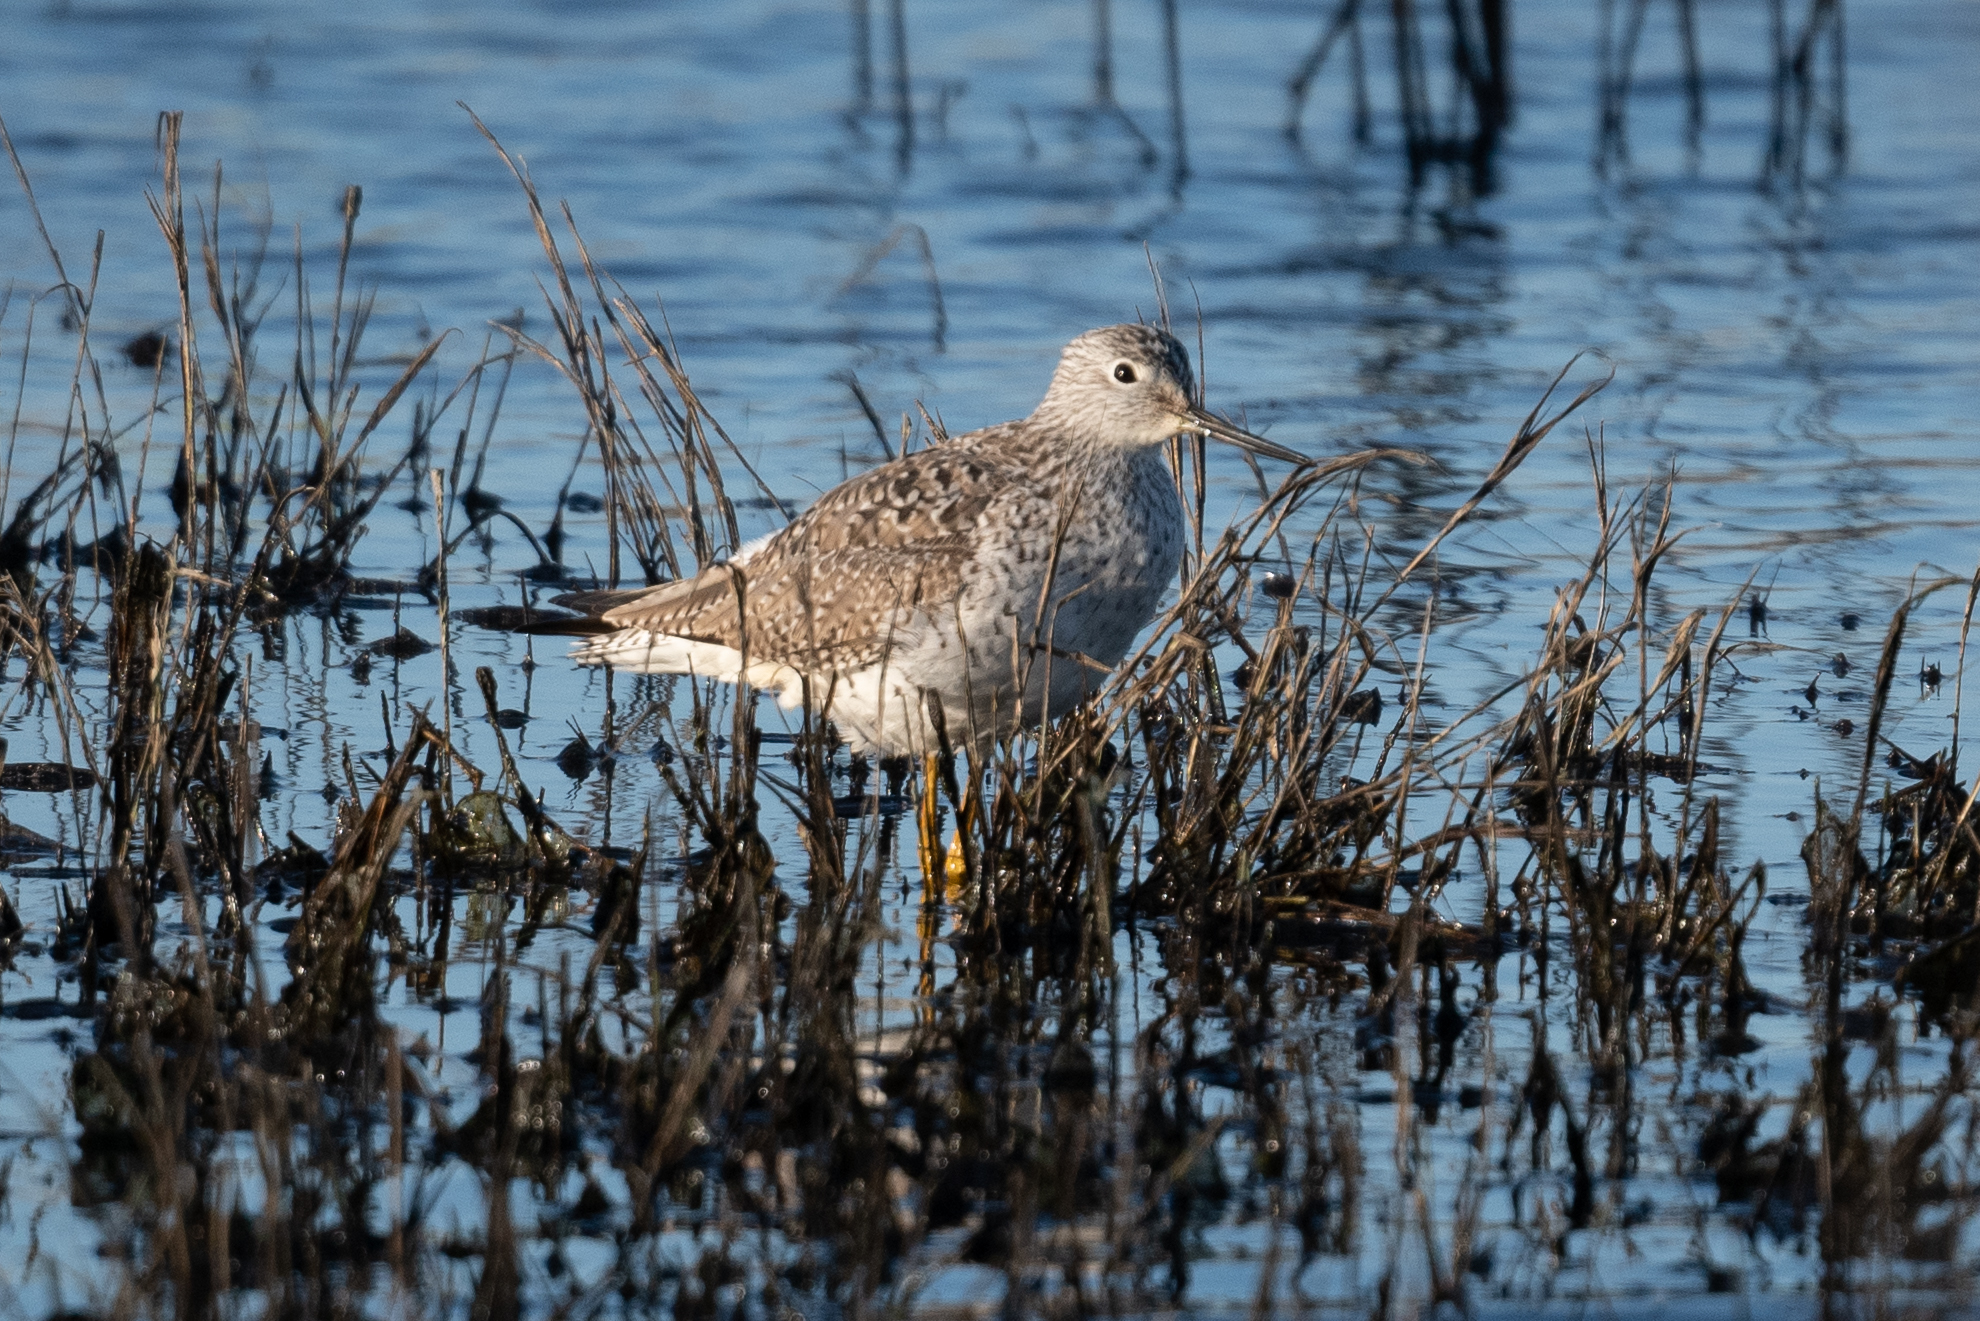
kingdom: Animalia
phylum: Chordata
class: Aves
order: Charadriiformes
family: Scolopacidae
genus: Tringa
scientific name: Tringa melanoleuca
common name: Greater yellowlegs
